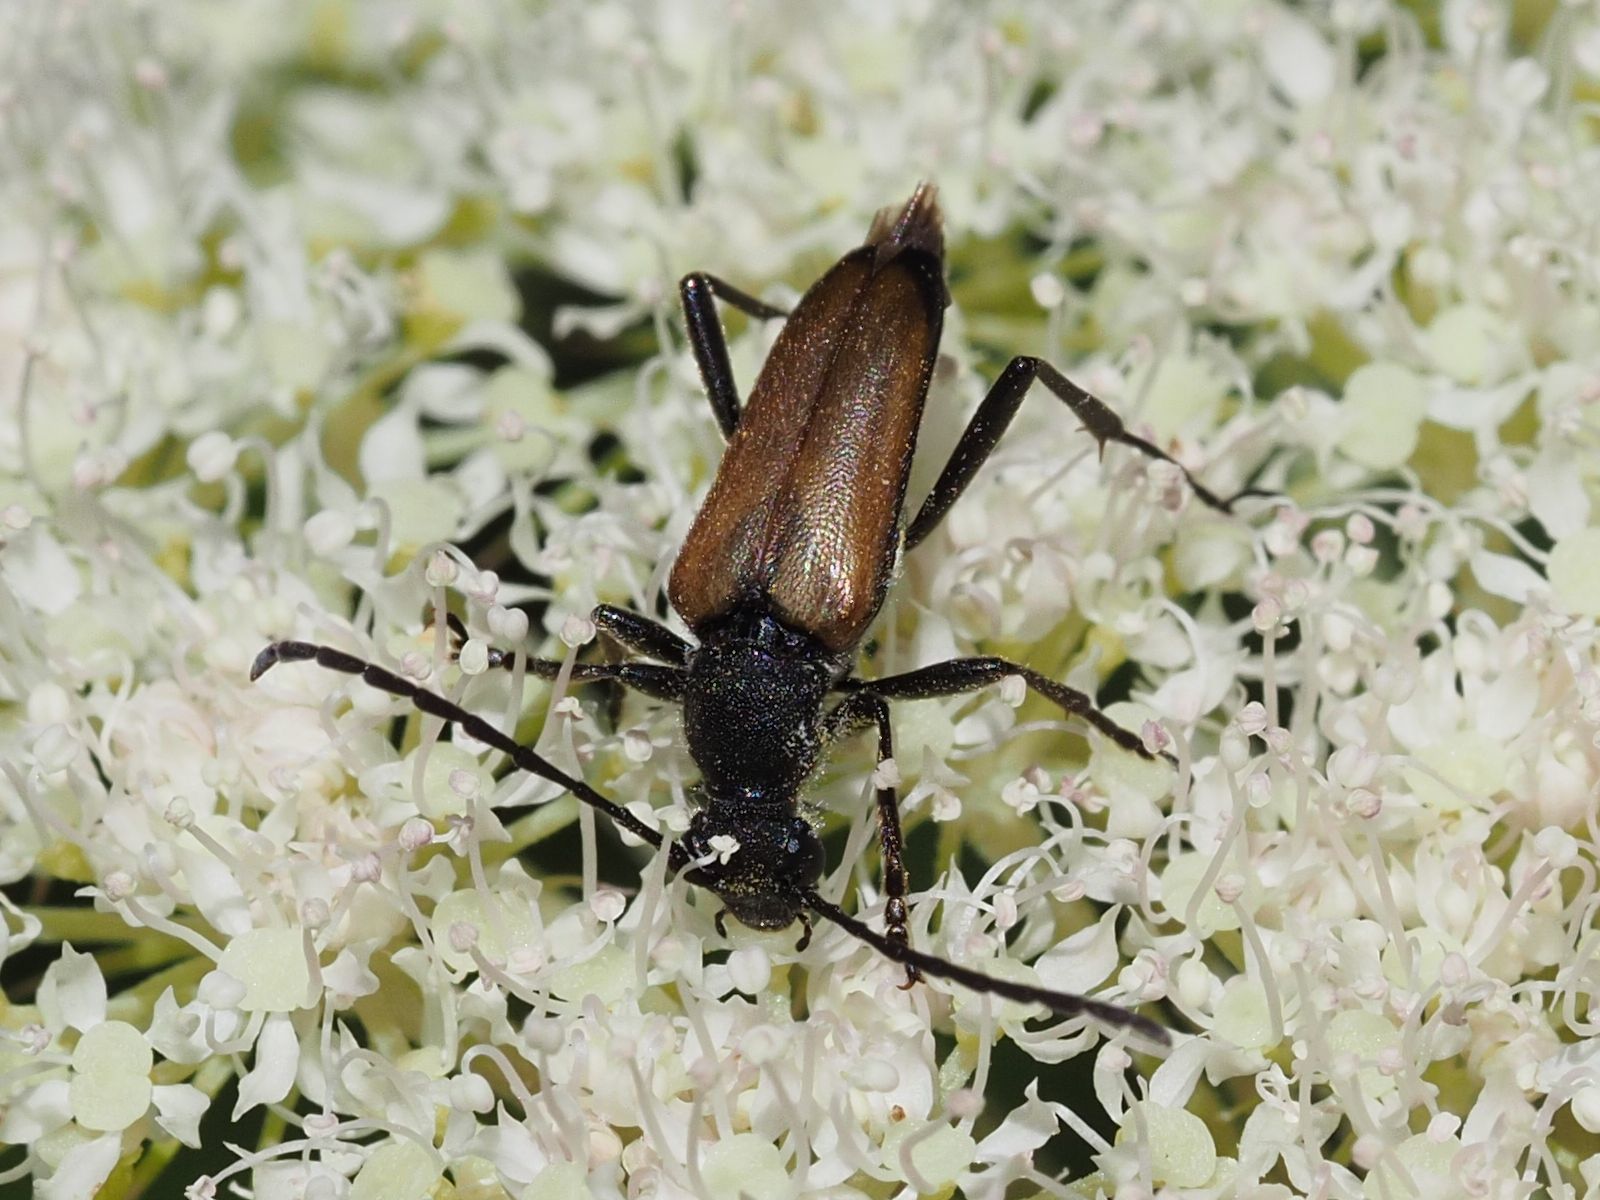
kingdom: Animalia
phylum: Arthropoda
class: Insecta
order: Coleoptera
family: Cerambycidae
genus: Anastrangalia
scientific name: Anastrangalia dubia
